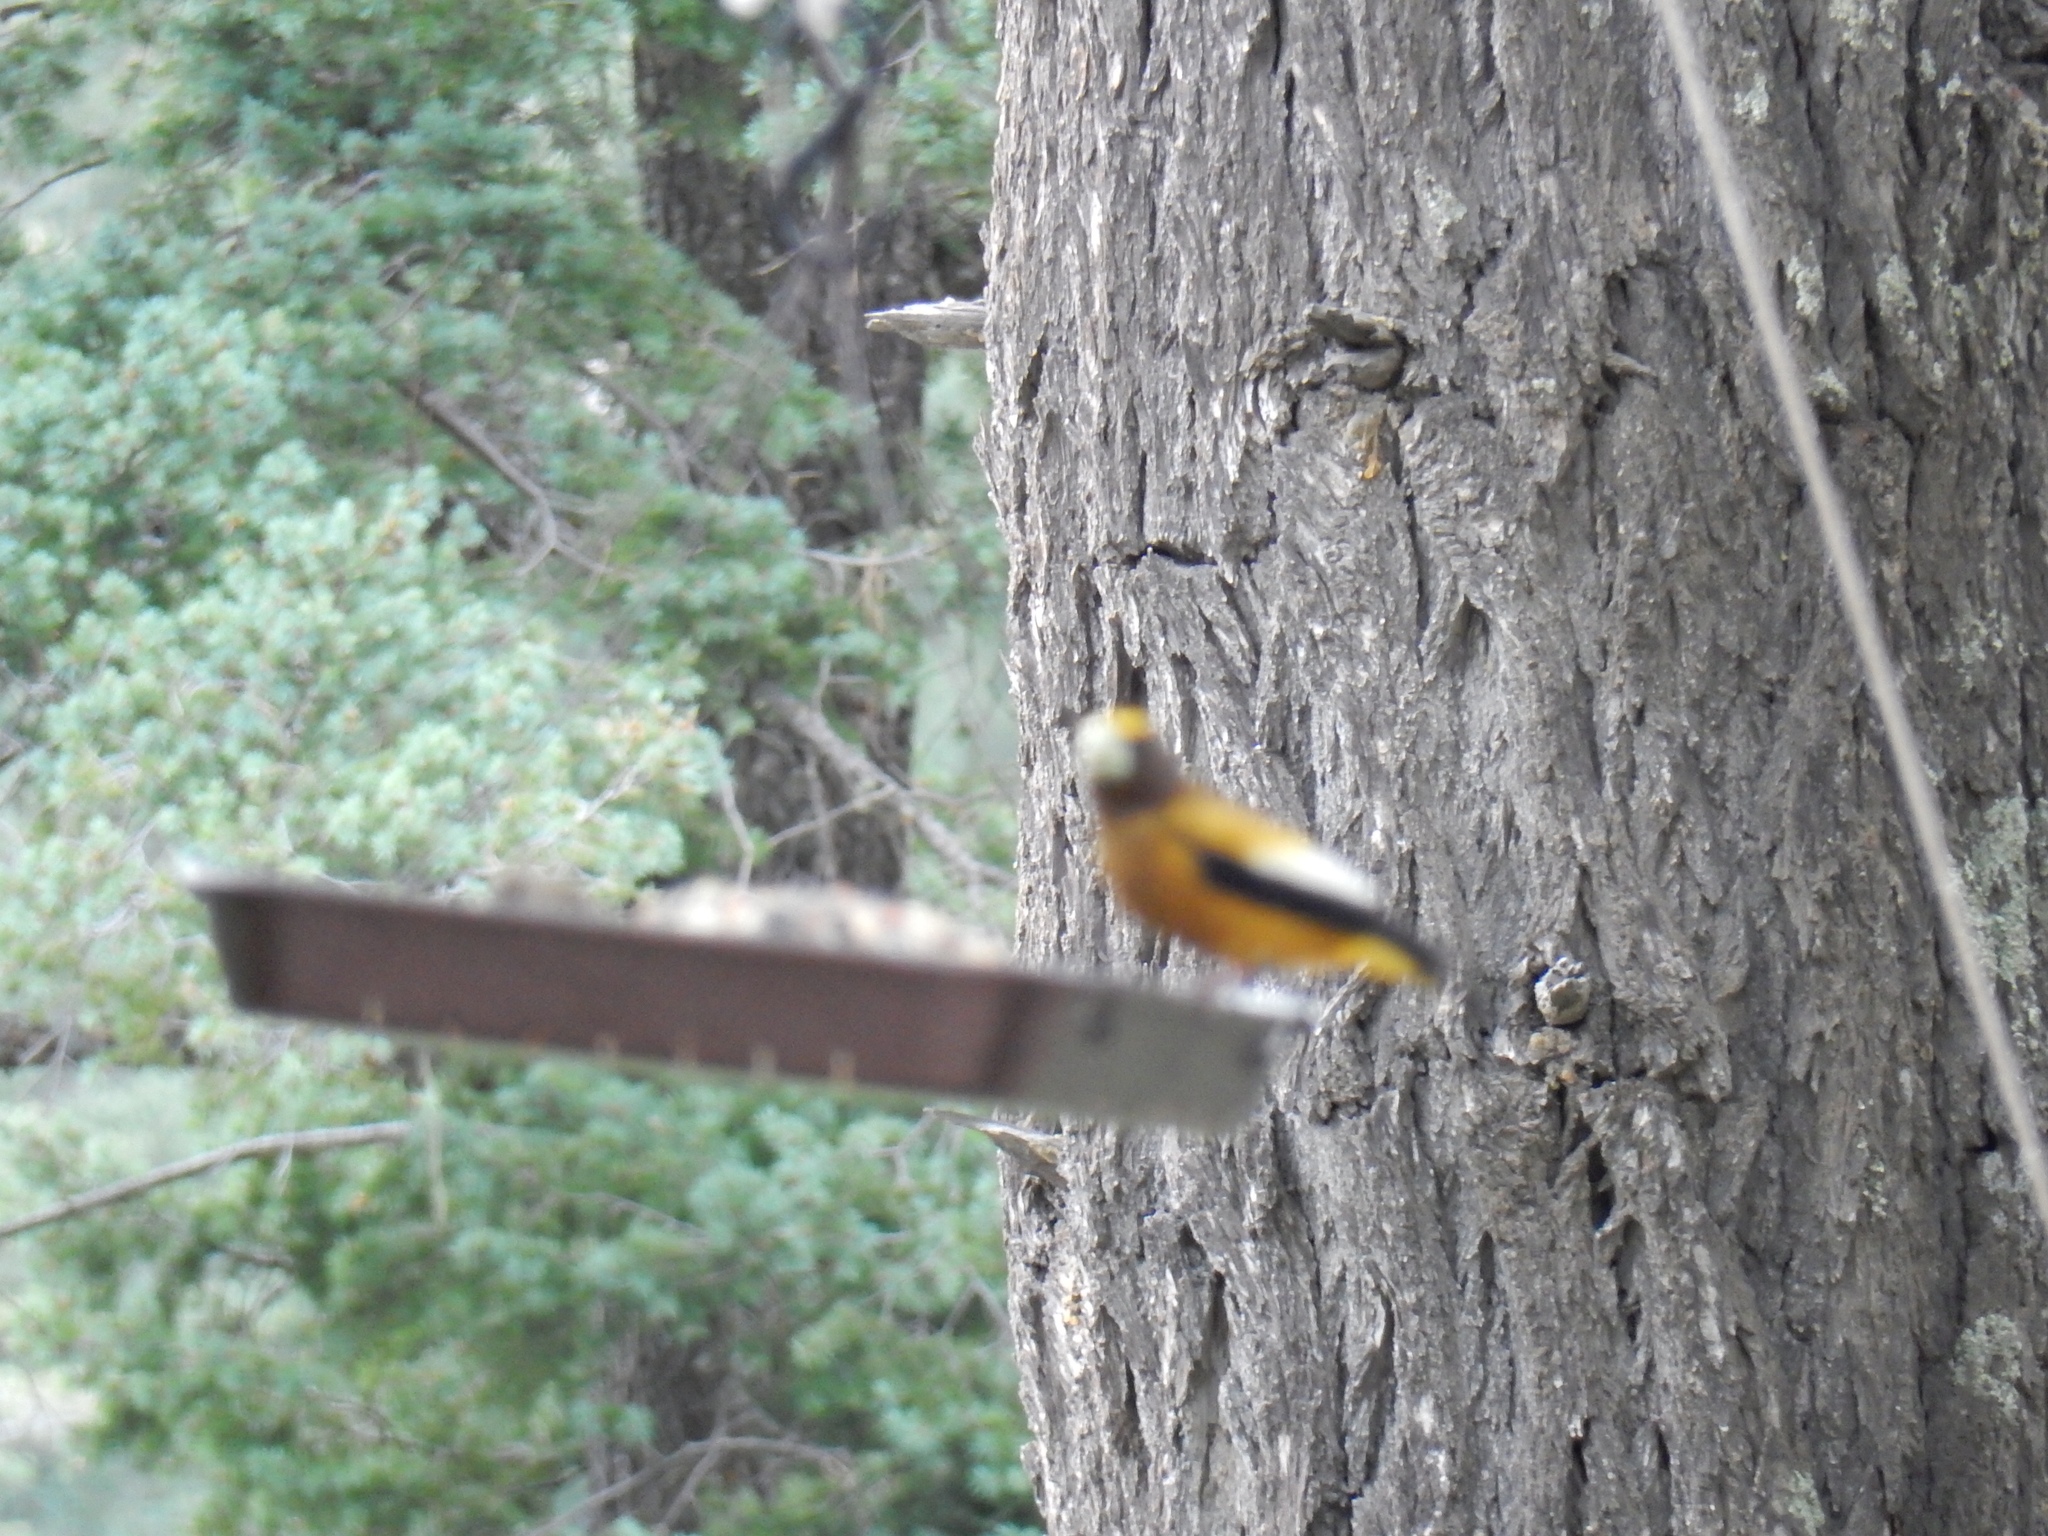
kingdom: Animalia
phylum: Chordata
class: Aves
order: Passeriformes
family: Fringillidae
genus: Hesperiphona
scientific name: Hesperiphona vespertina
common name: Evening grosbeak
